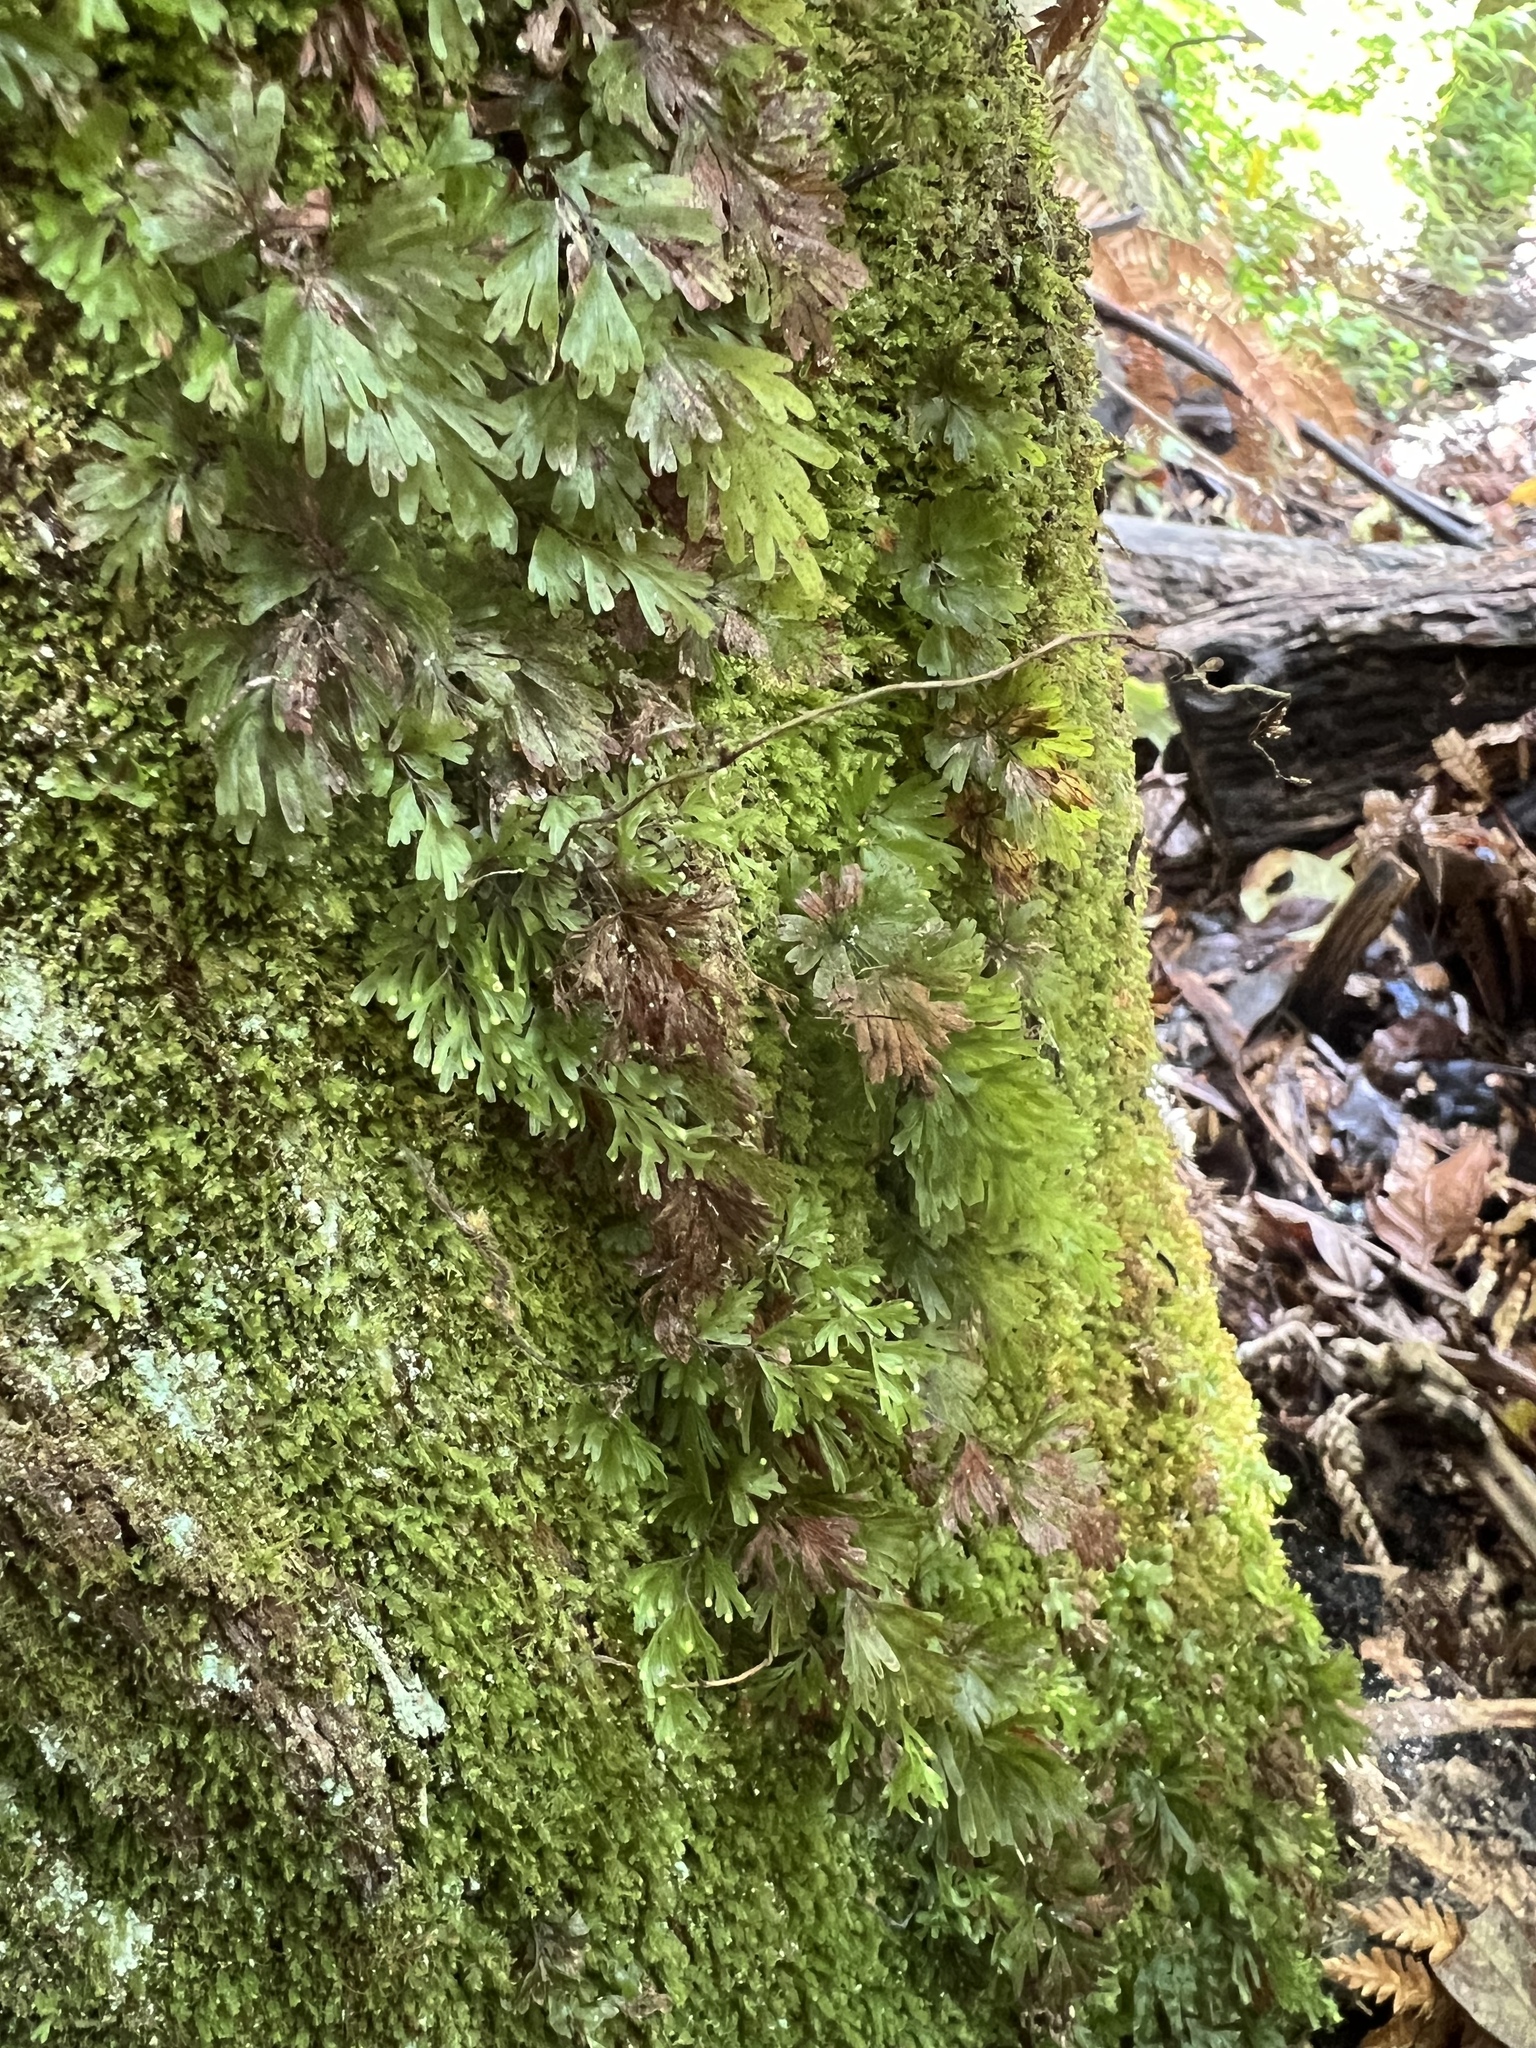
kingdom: Plantae
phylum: Tracheophyta
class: Polypodiopsida
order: Hymenophyllales
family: Hymenophyllaceae
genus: Hymenophyllum
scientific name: Hymenophyllum flabellatum
